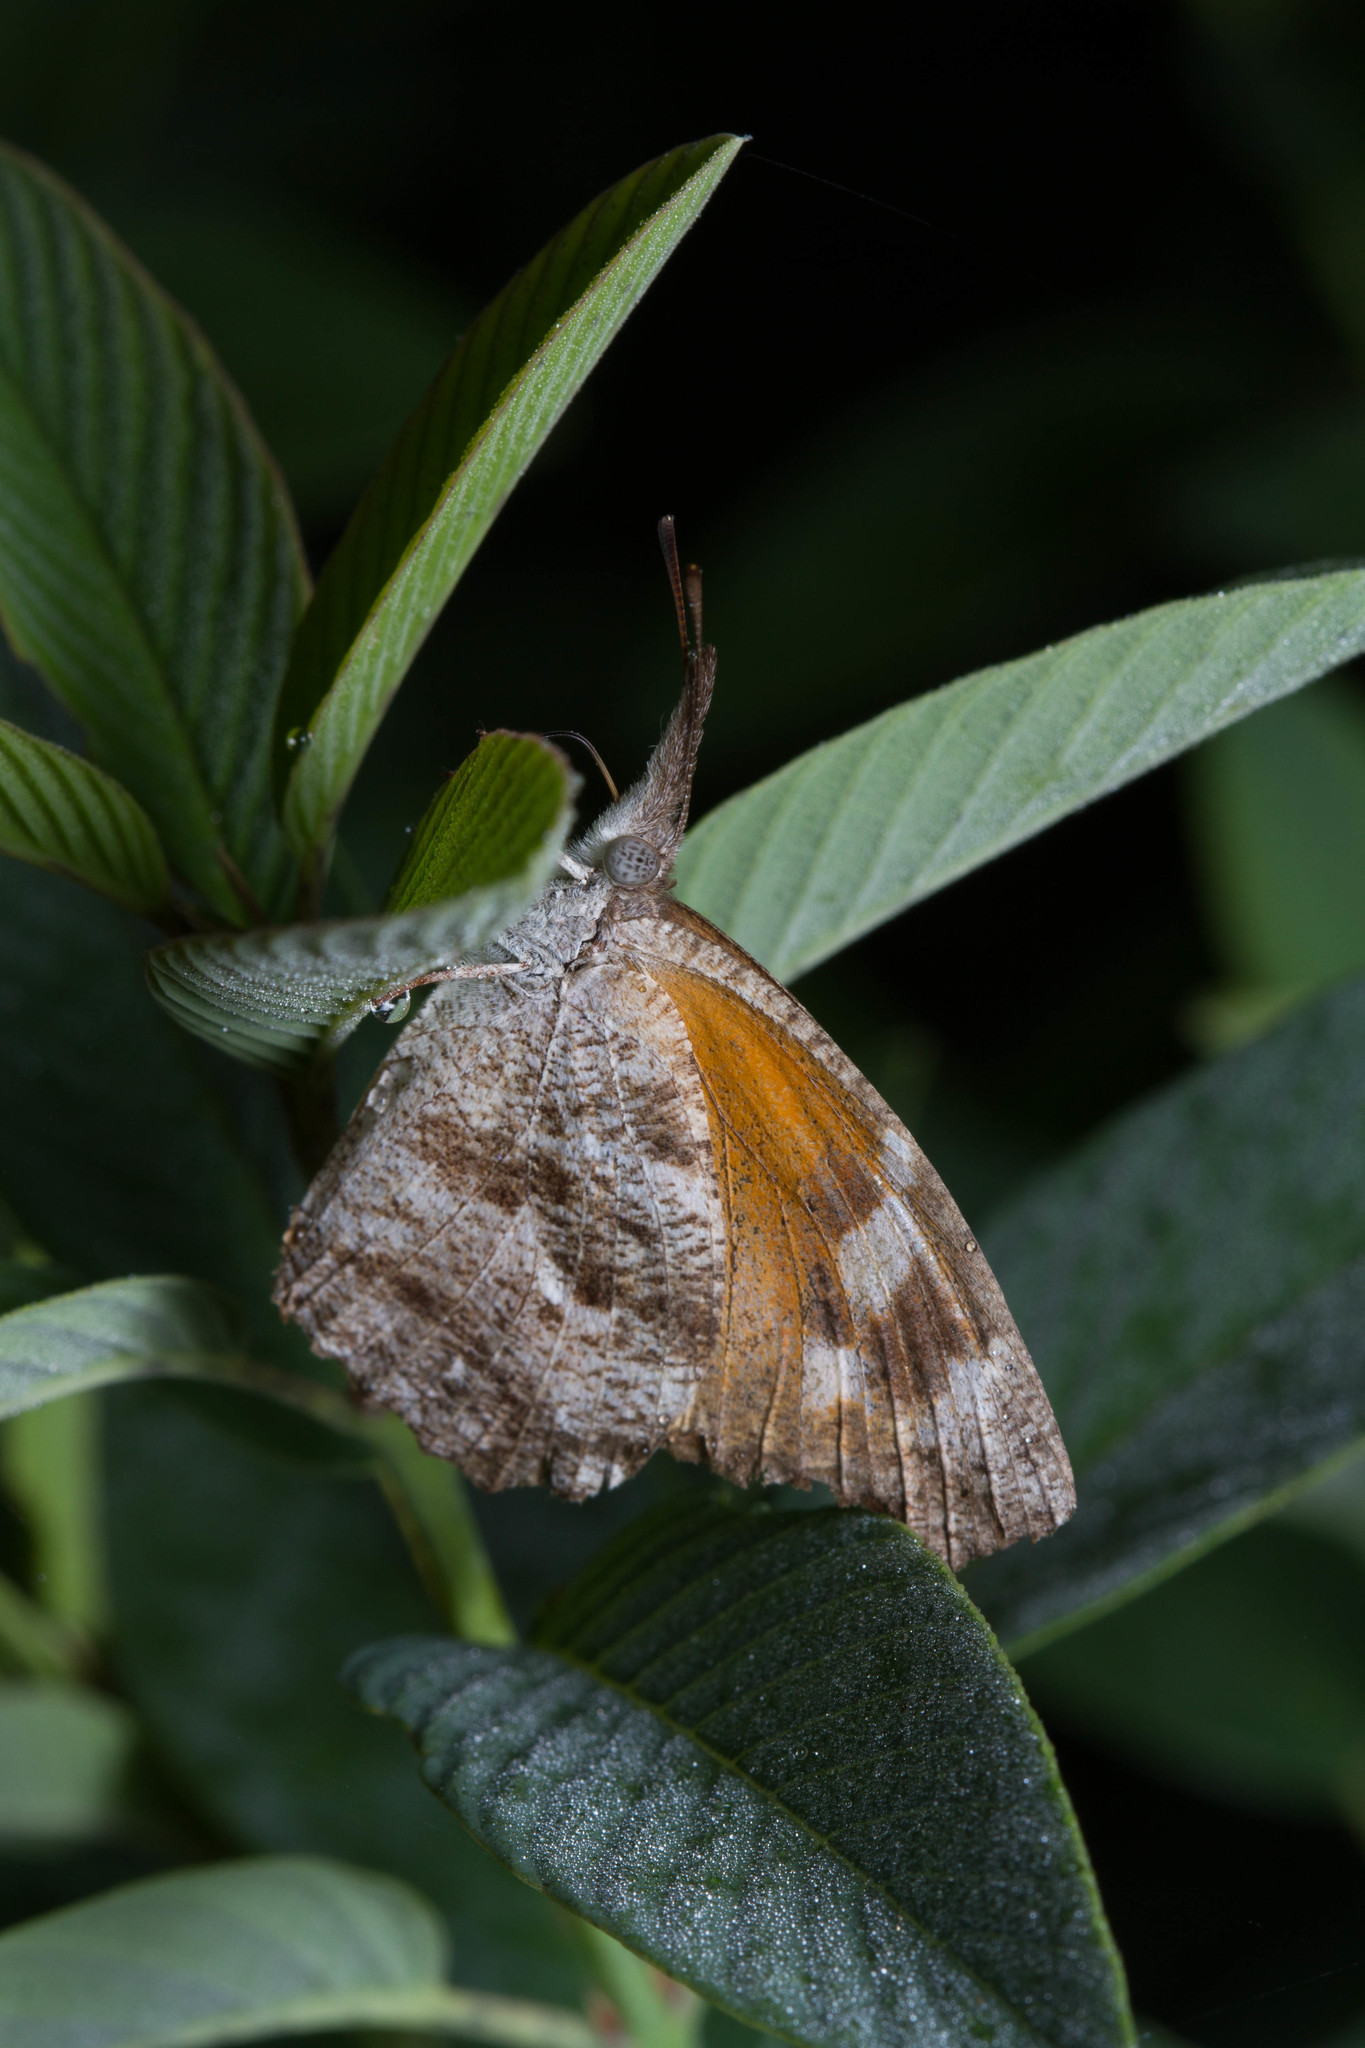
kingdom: Animalia
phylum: Arthropoda
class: Insecta
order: Lepidoptera
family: Nymphalidae
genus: Libytheana
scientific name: Libytheana carinenta
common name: American snout
